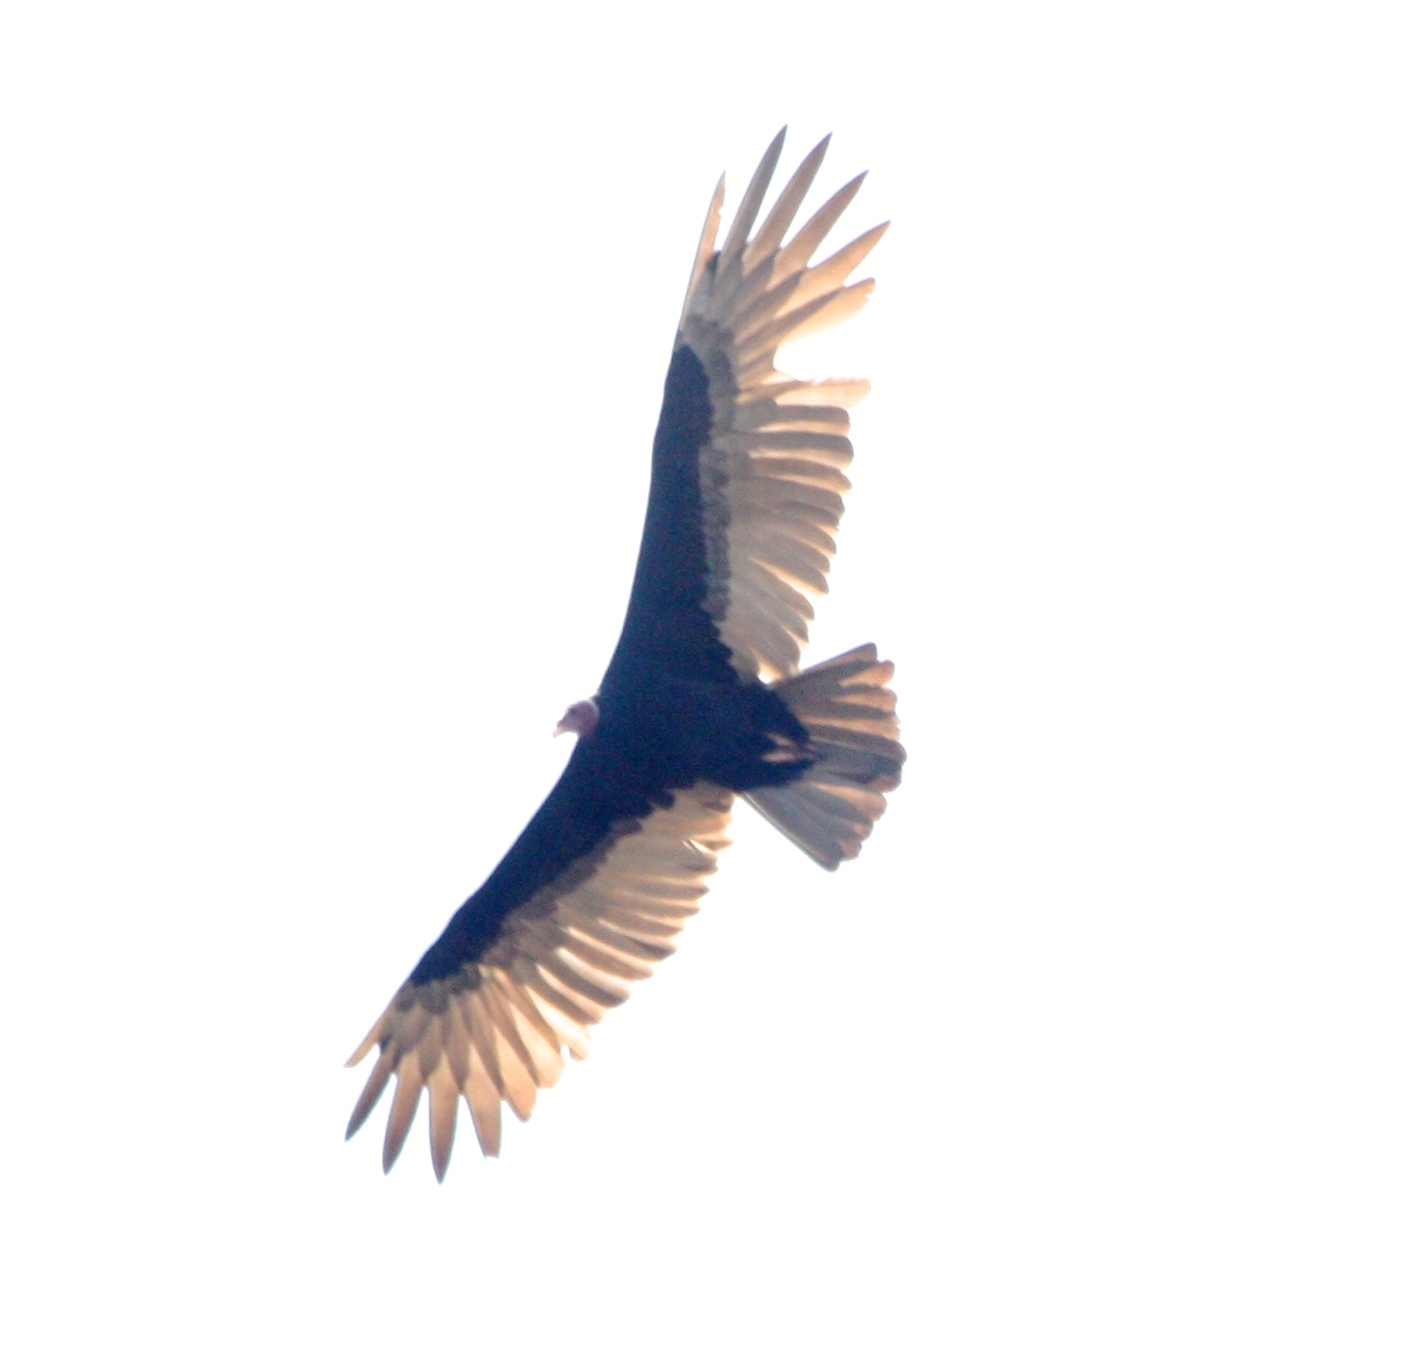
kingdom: Animalia
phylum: Chordata
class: Aves
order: Accipitriformes
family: Cathartidae
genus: Cathartes
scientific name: Cathartes aura
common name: Turkey vulture
